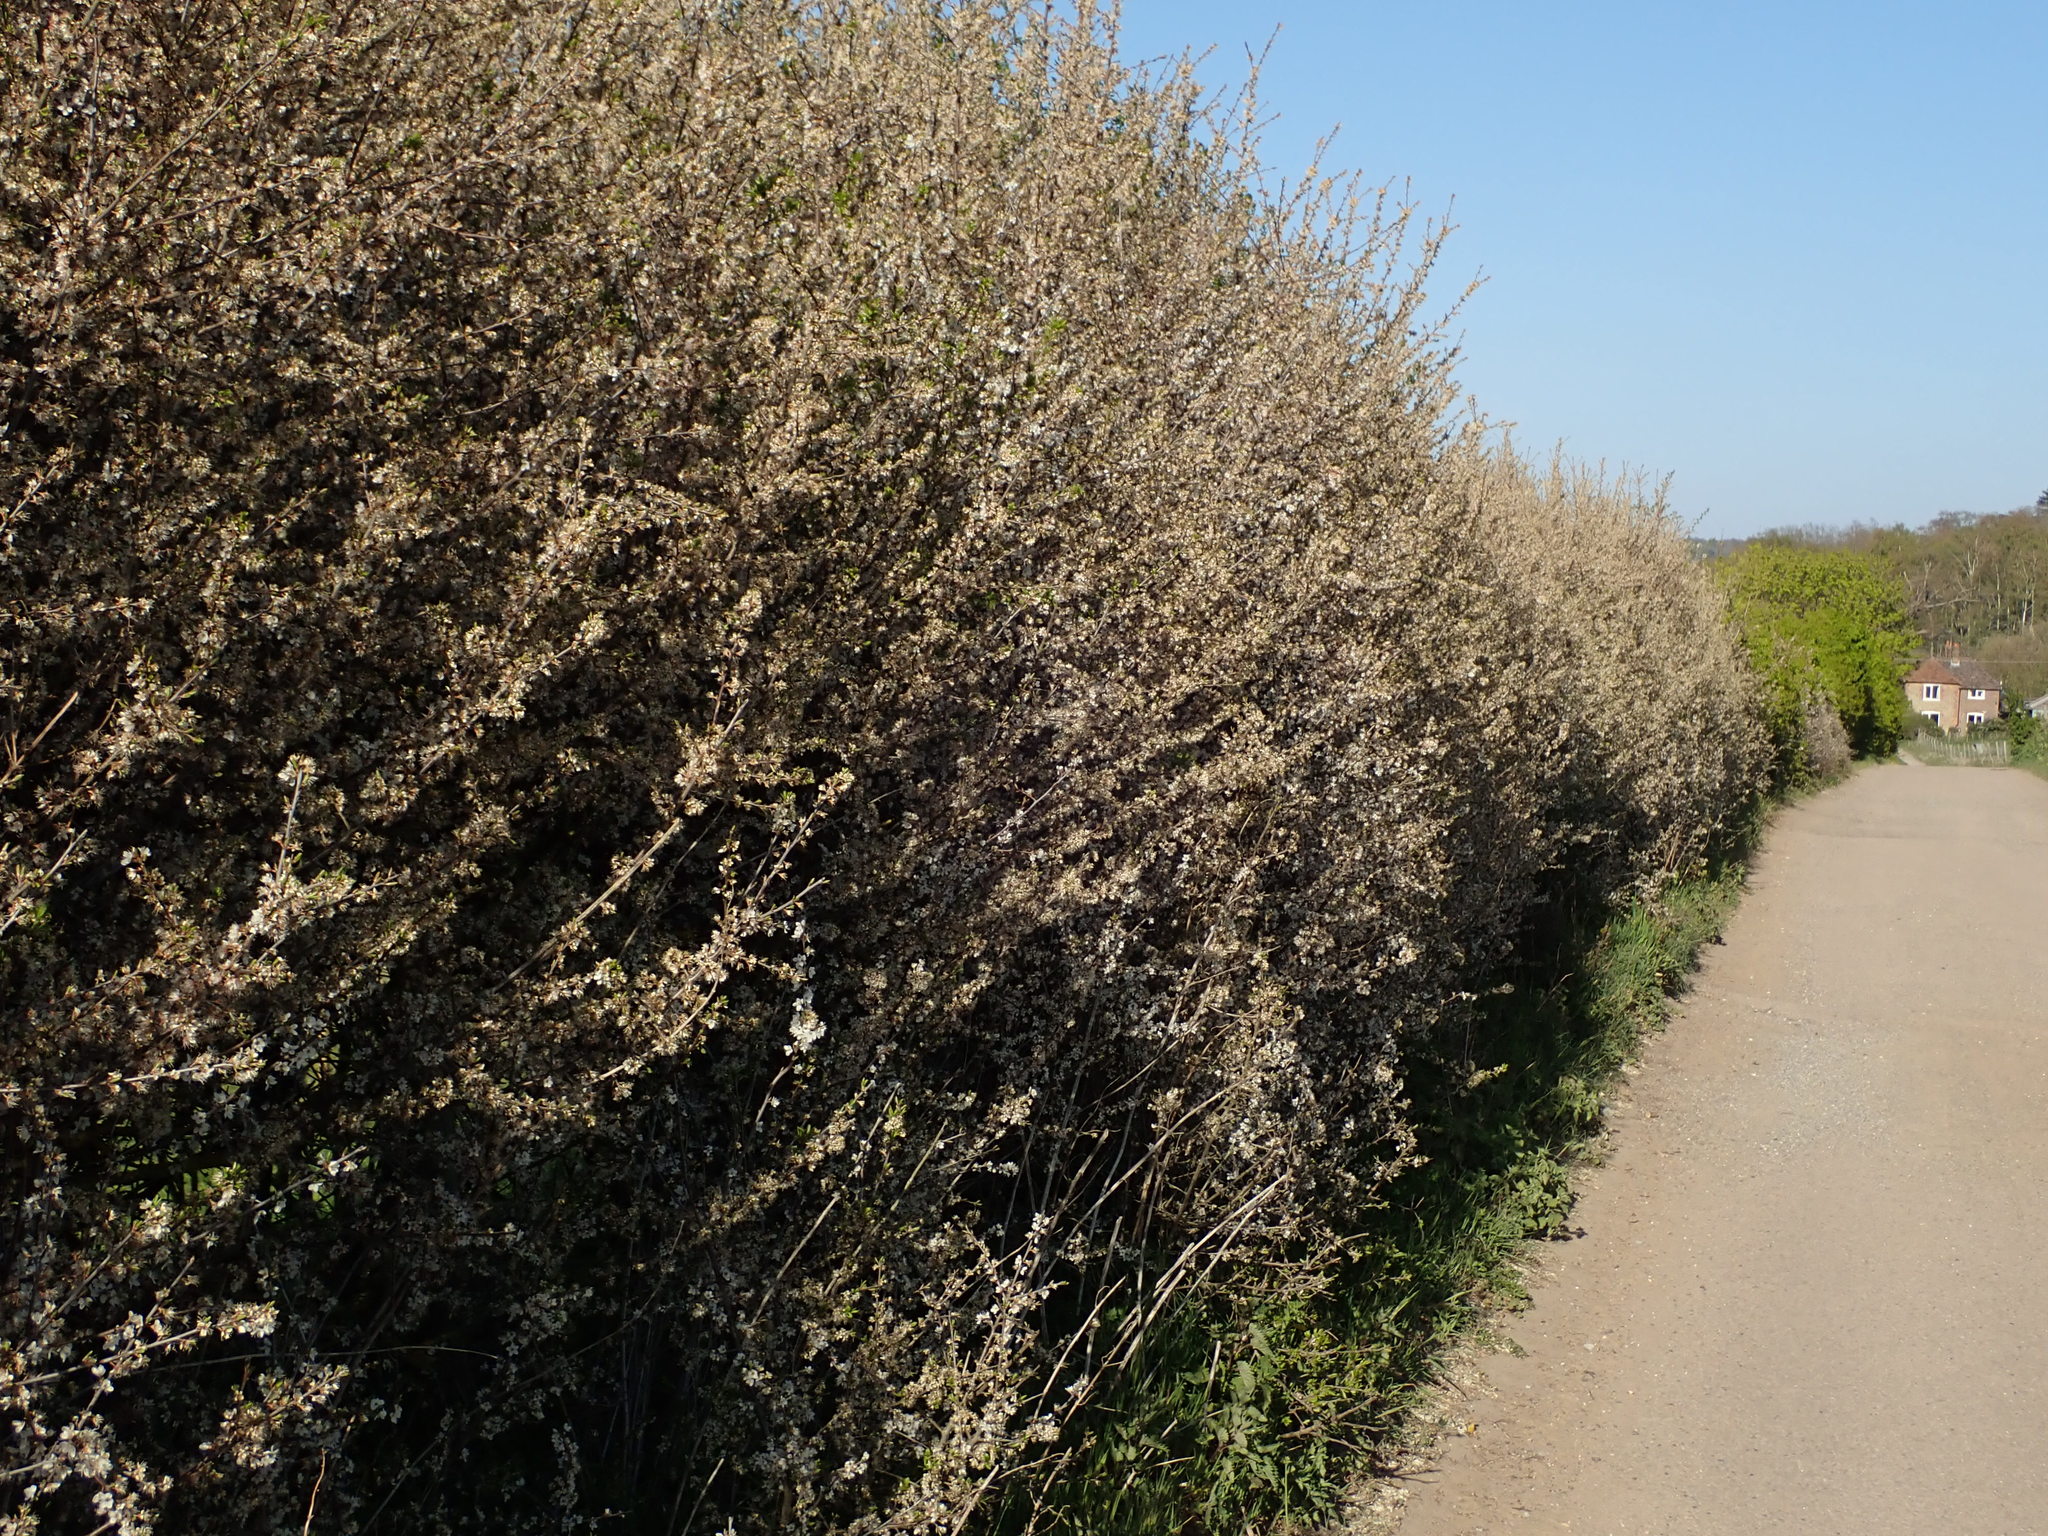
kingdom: Plantae
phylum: Tracheophyta
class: Magnoliopsida
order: Rosales
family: Rosaceae
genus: Prunus
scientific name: Prunus spinosa
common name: Blackthorn
